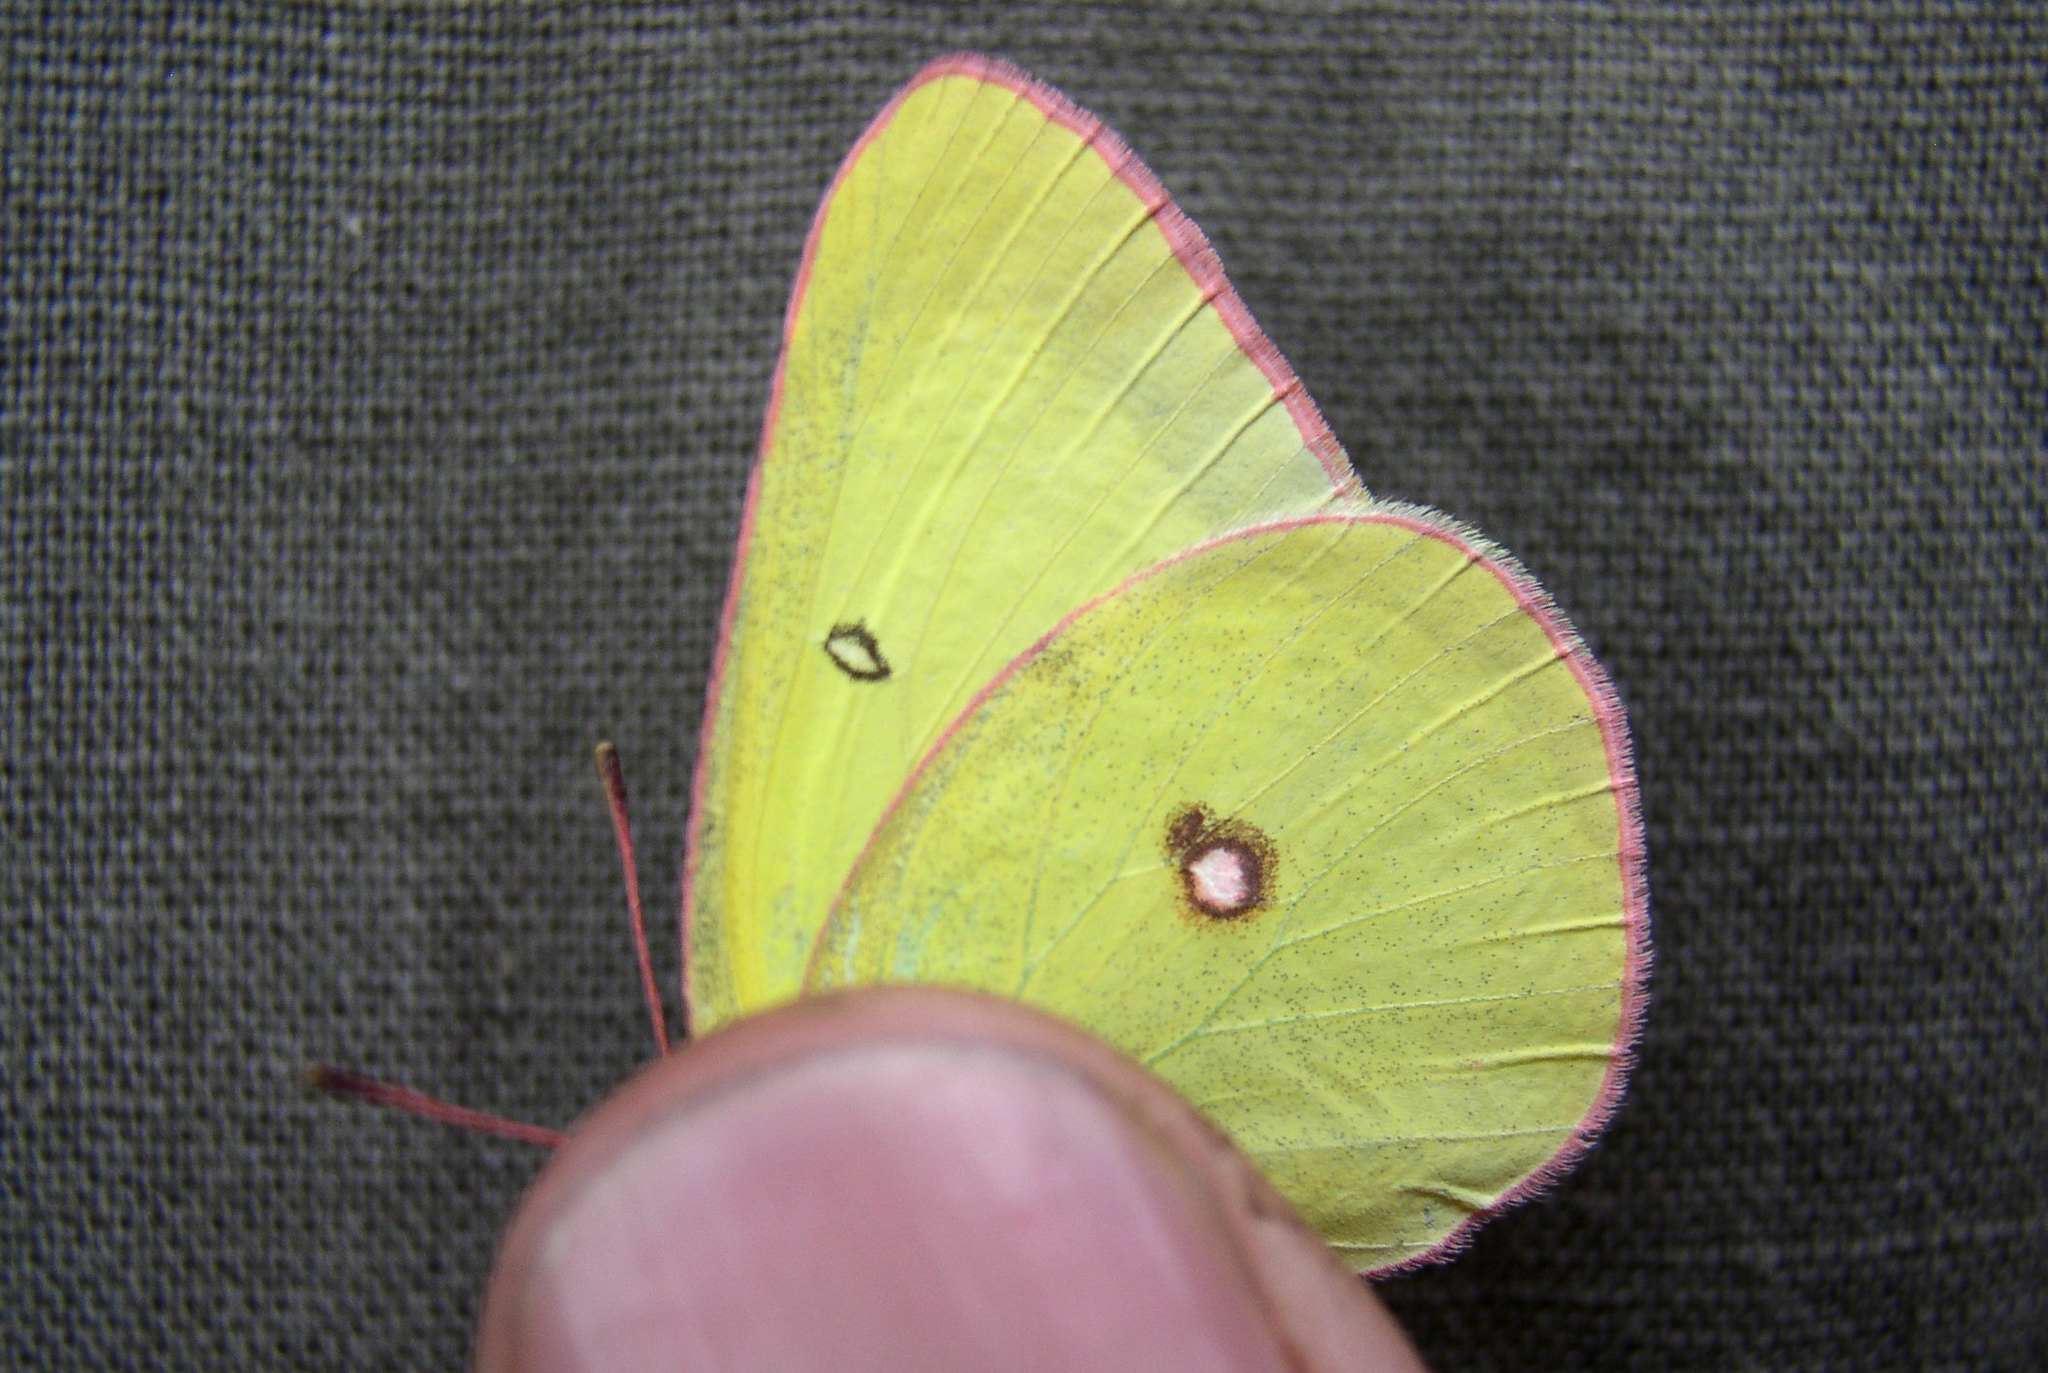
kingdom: Animalia
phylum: Arthropoda
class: Insecta
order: Lepidoptera
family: Pieridae
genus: Colias
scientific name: Colias interior
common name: Pink-edged sulphur
